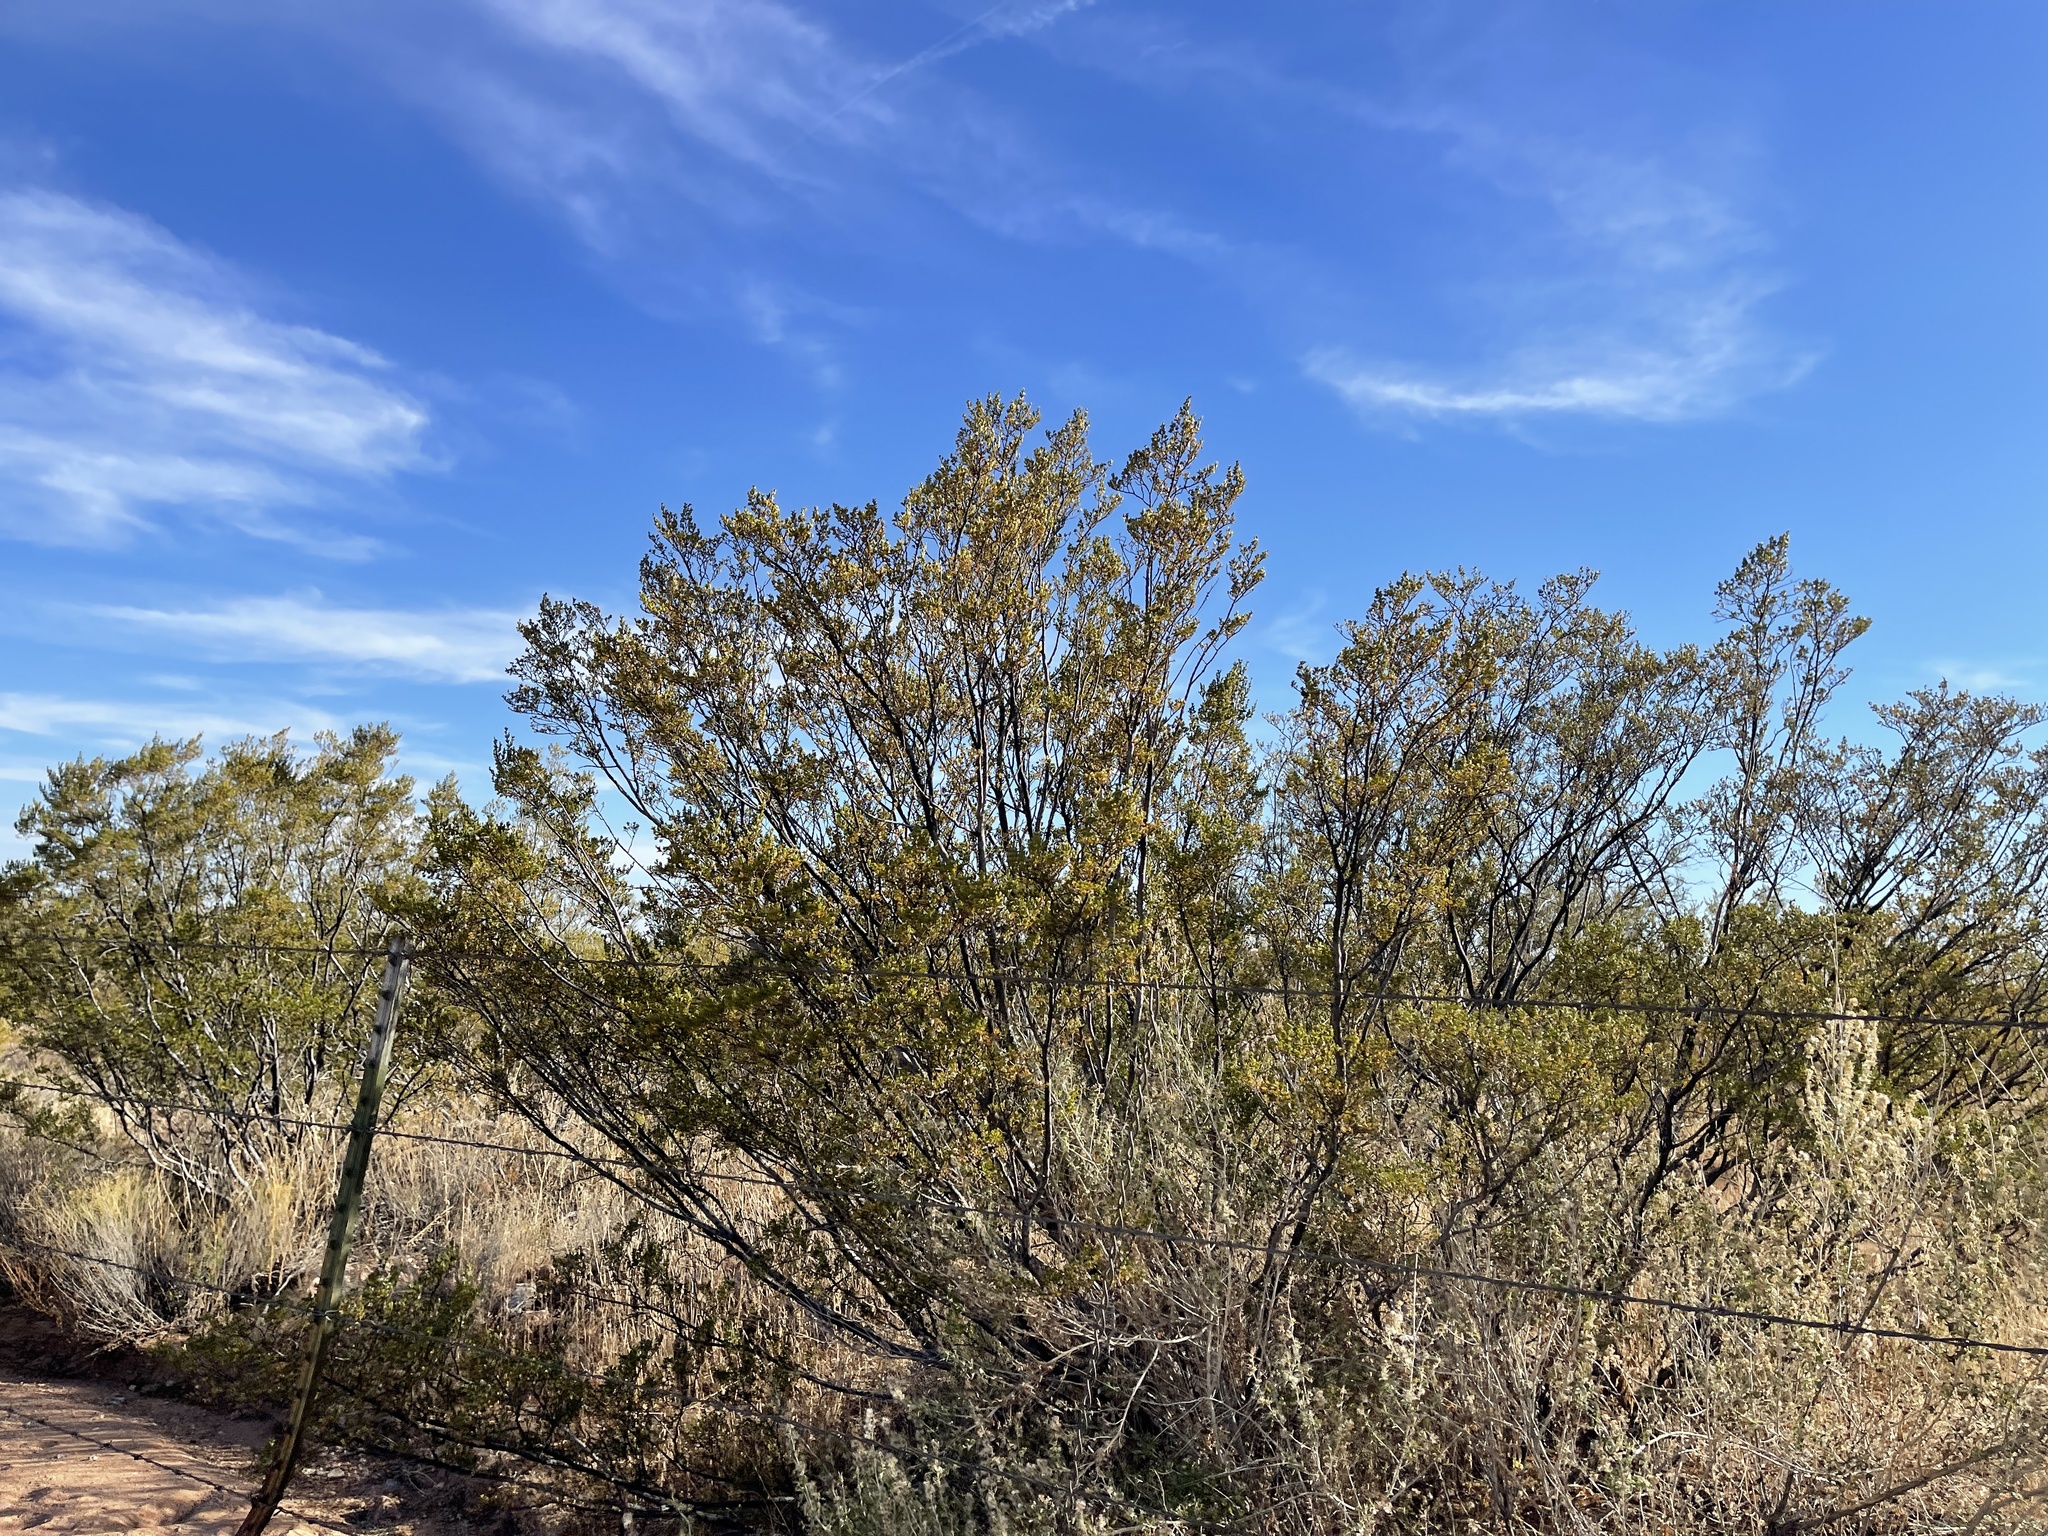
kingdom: Plantae
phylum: Tracheophyta
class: Magnoliopsida
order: Zygophyllales
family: Zygophyllaceae
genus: Larrea
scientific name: Larrea tridentata
